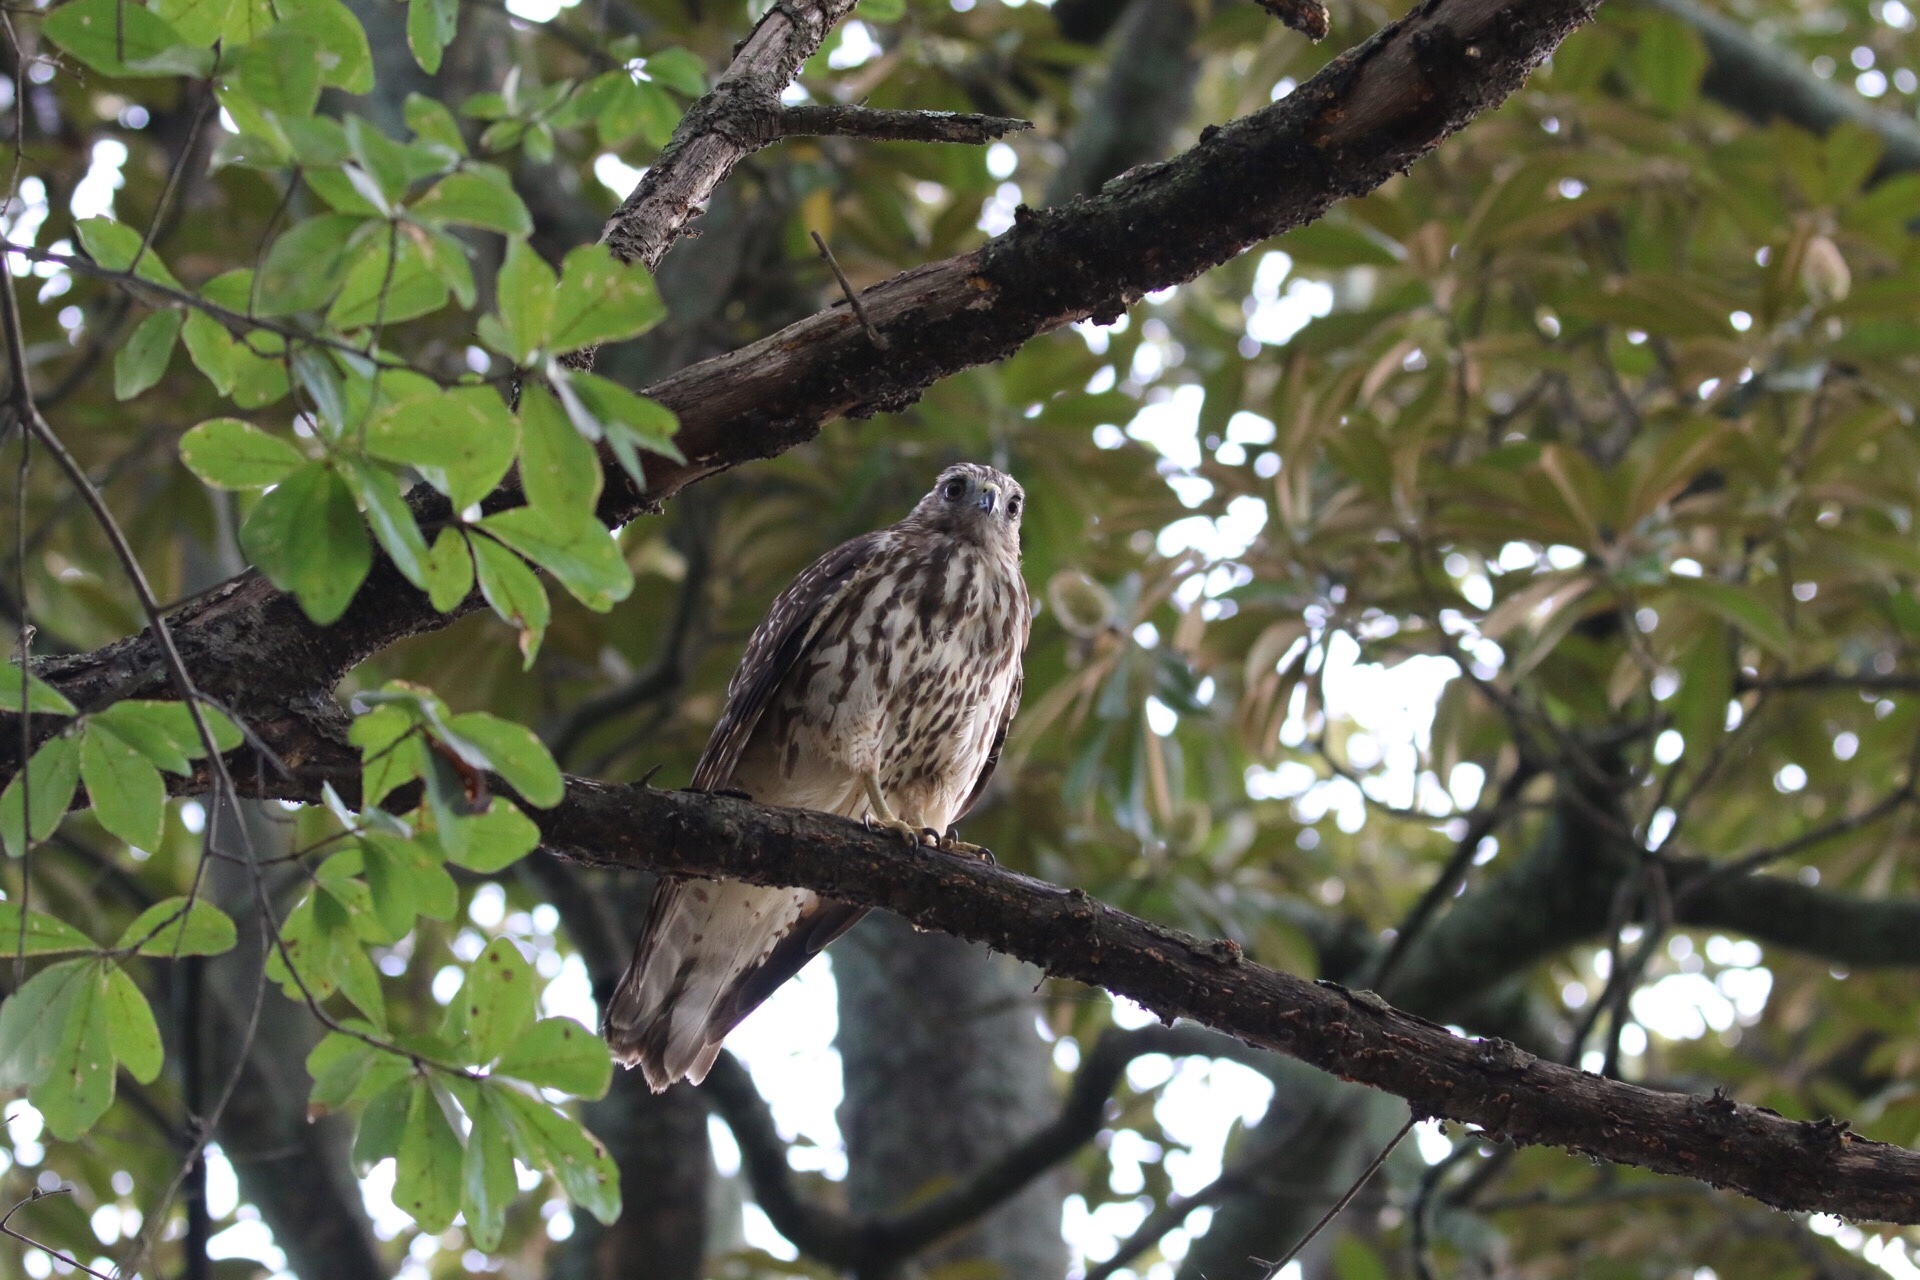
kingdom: Animalia
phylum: Chordata
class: Aves
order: Accipitriformes
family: Accipitridae
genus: Buteo
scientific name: Buteo lineatus
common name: Red-shouldered hawk
